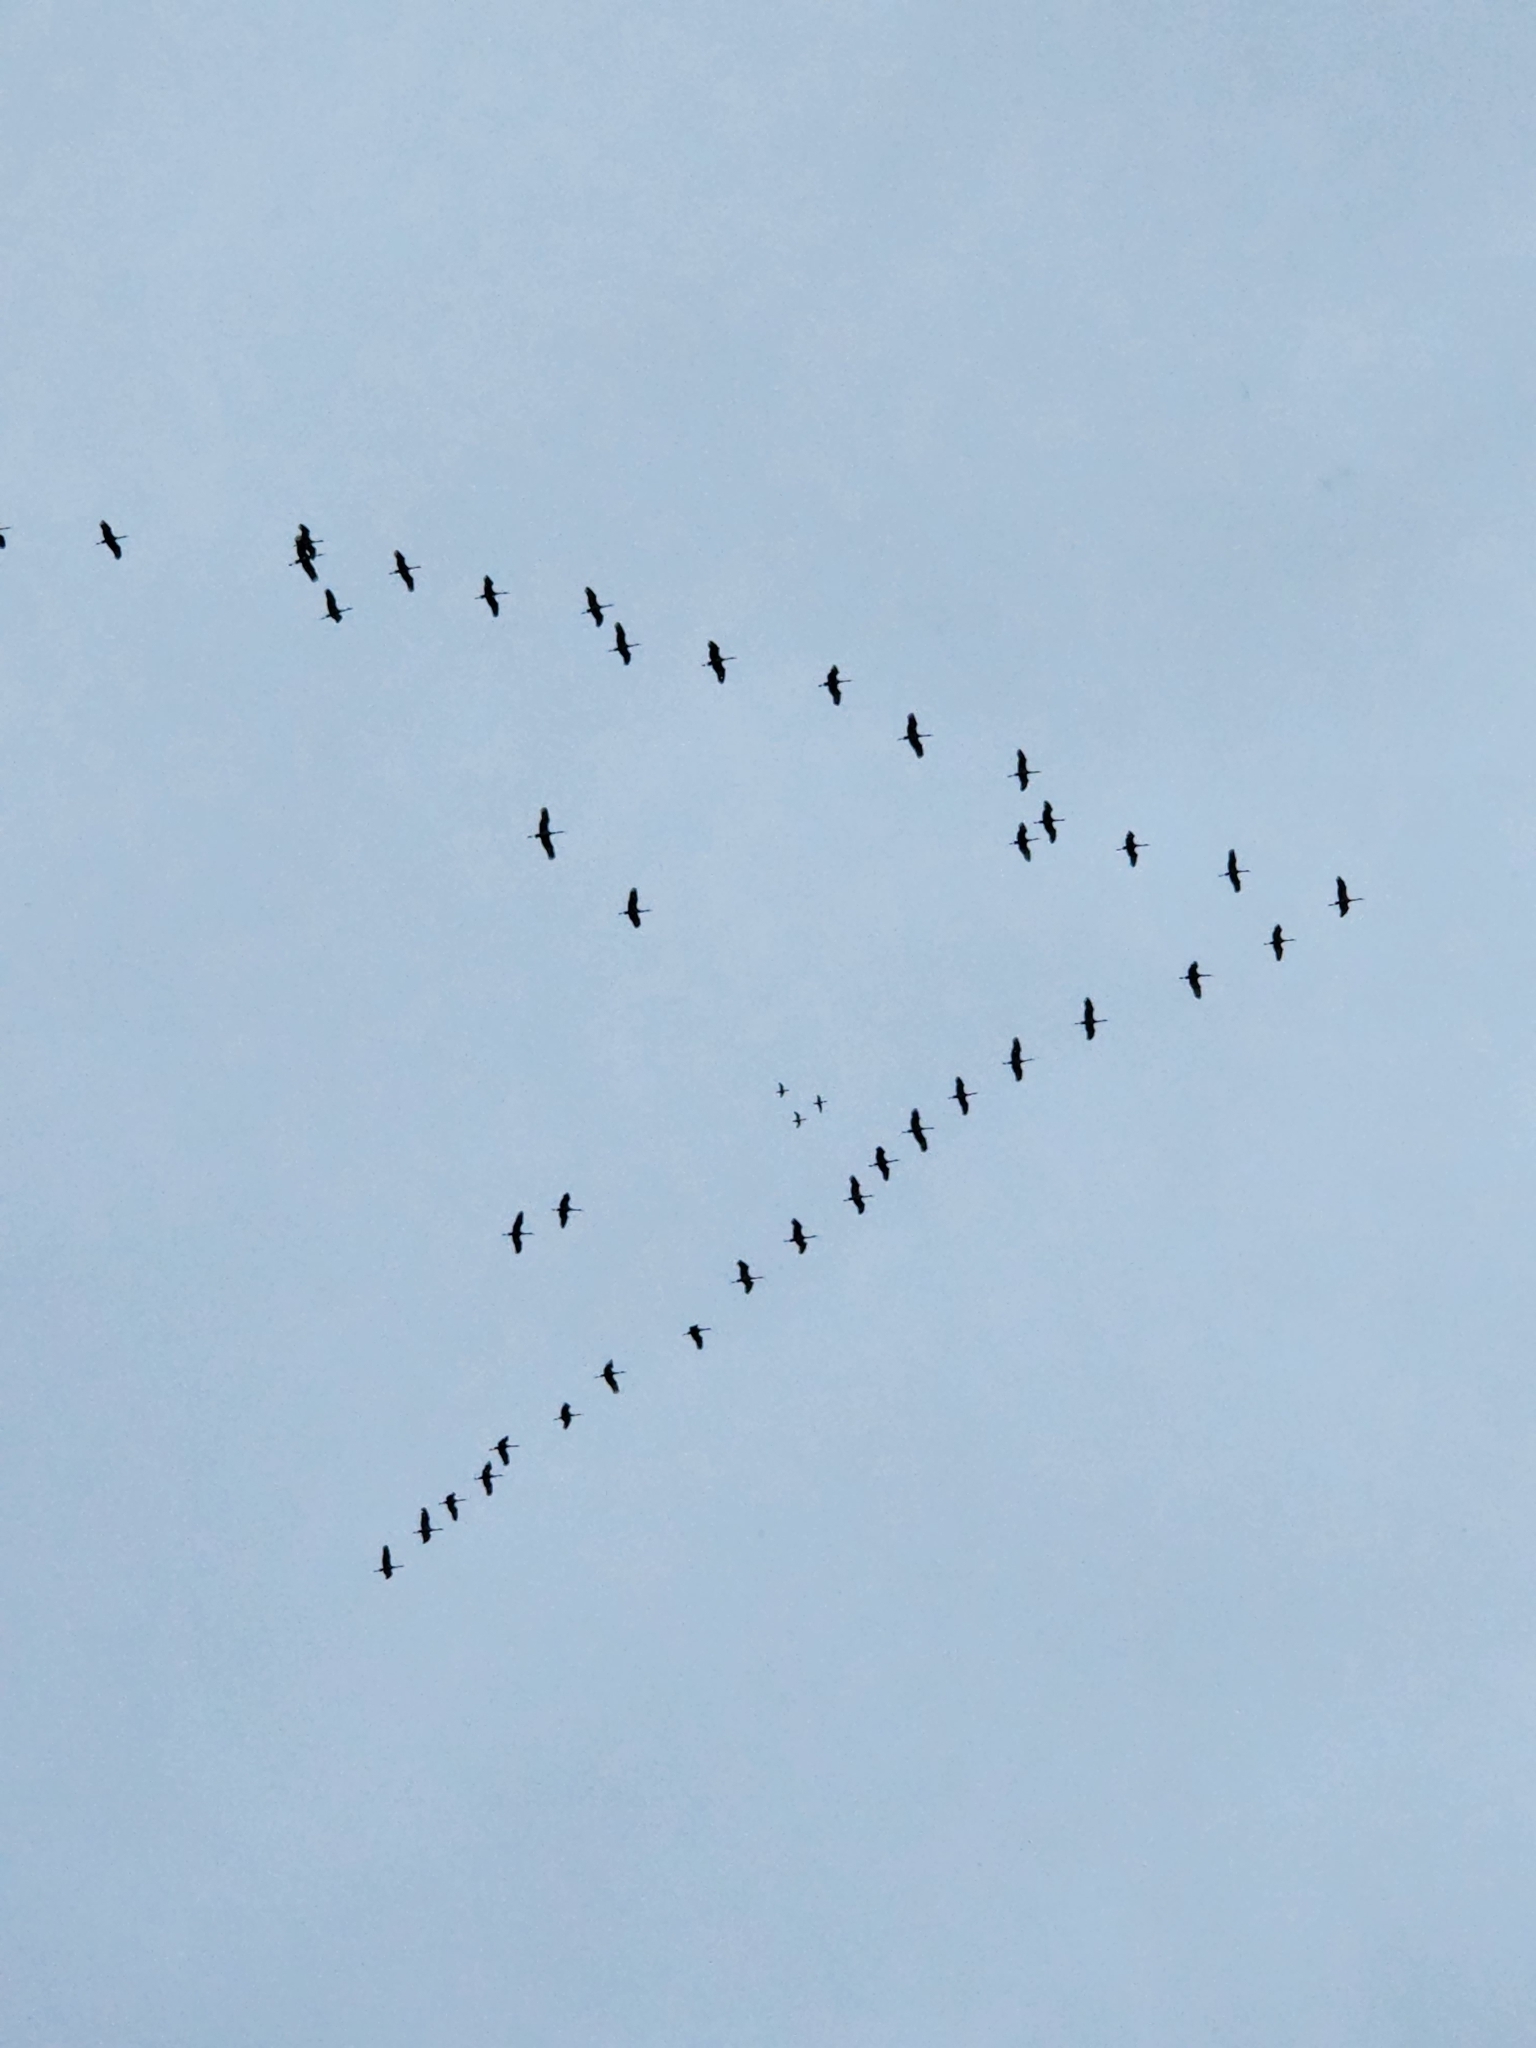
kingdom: Animalia
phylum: Chordata
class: Aves
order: Gruiformes
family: Gruidae
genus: Grus
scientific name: Grus canadensis
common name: Sandhill crane
